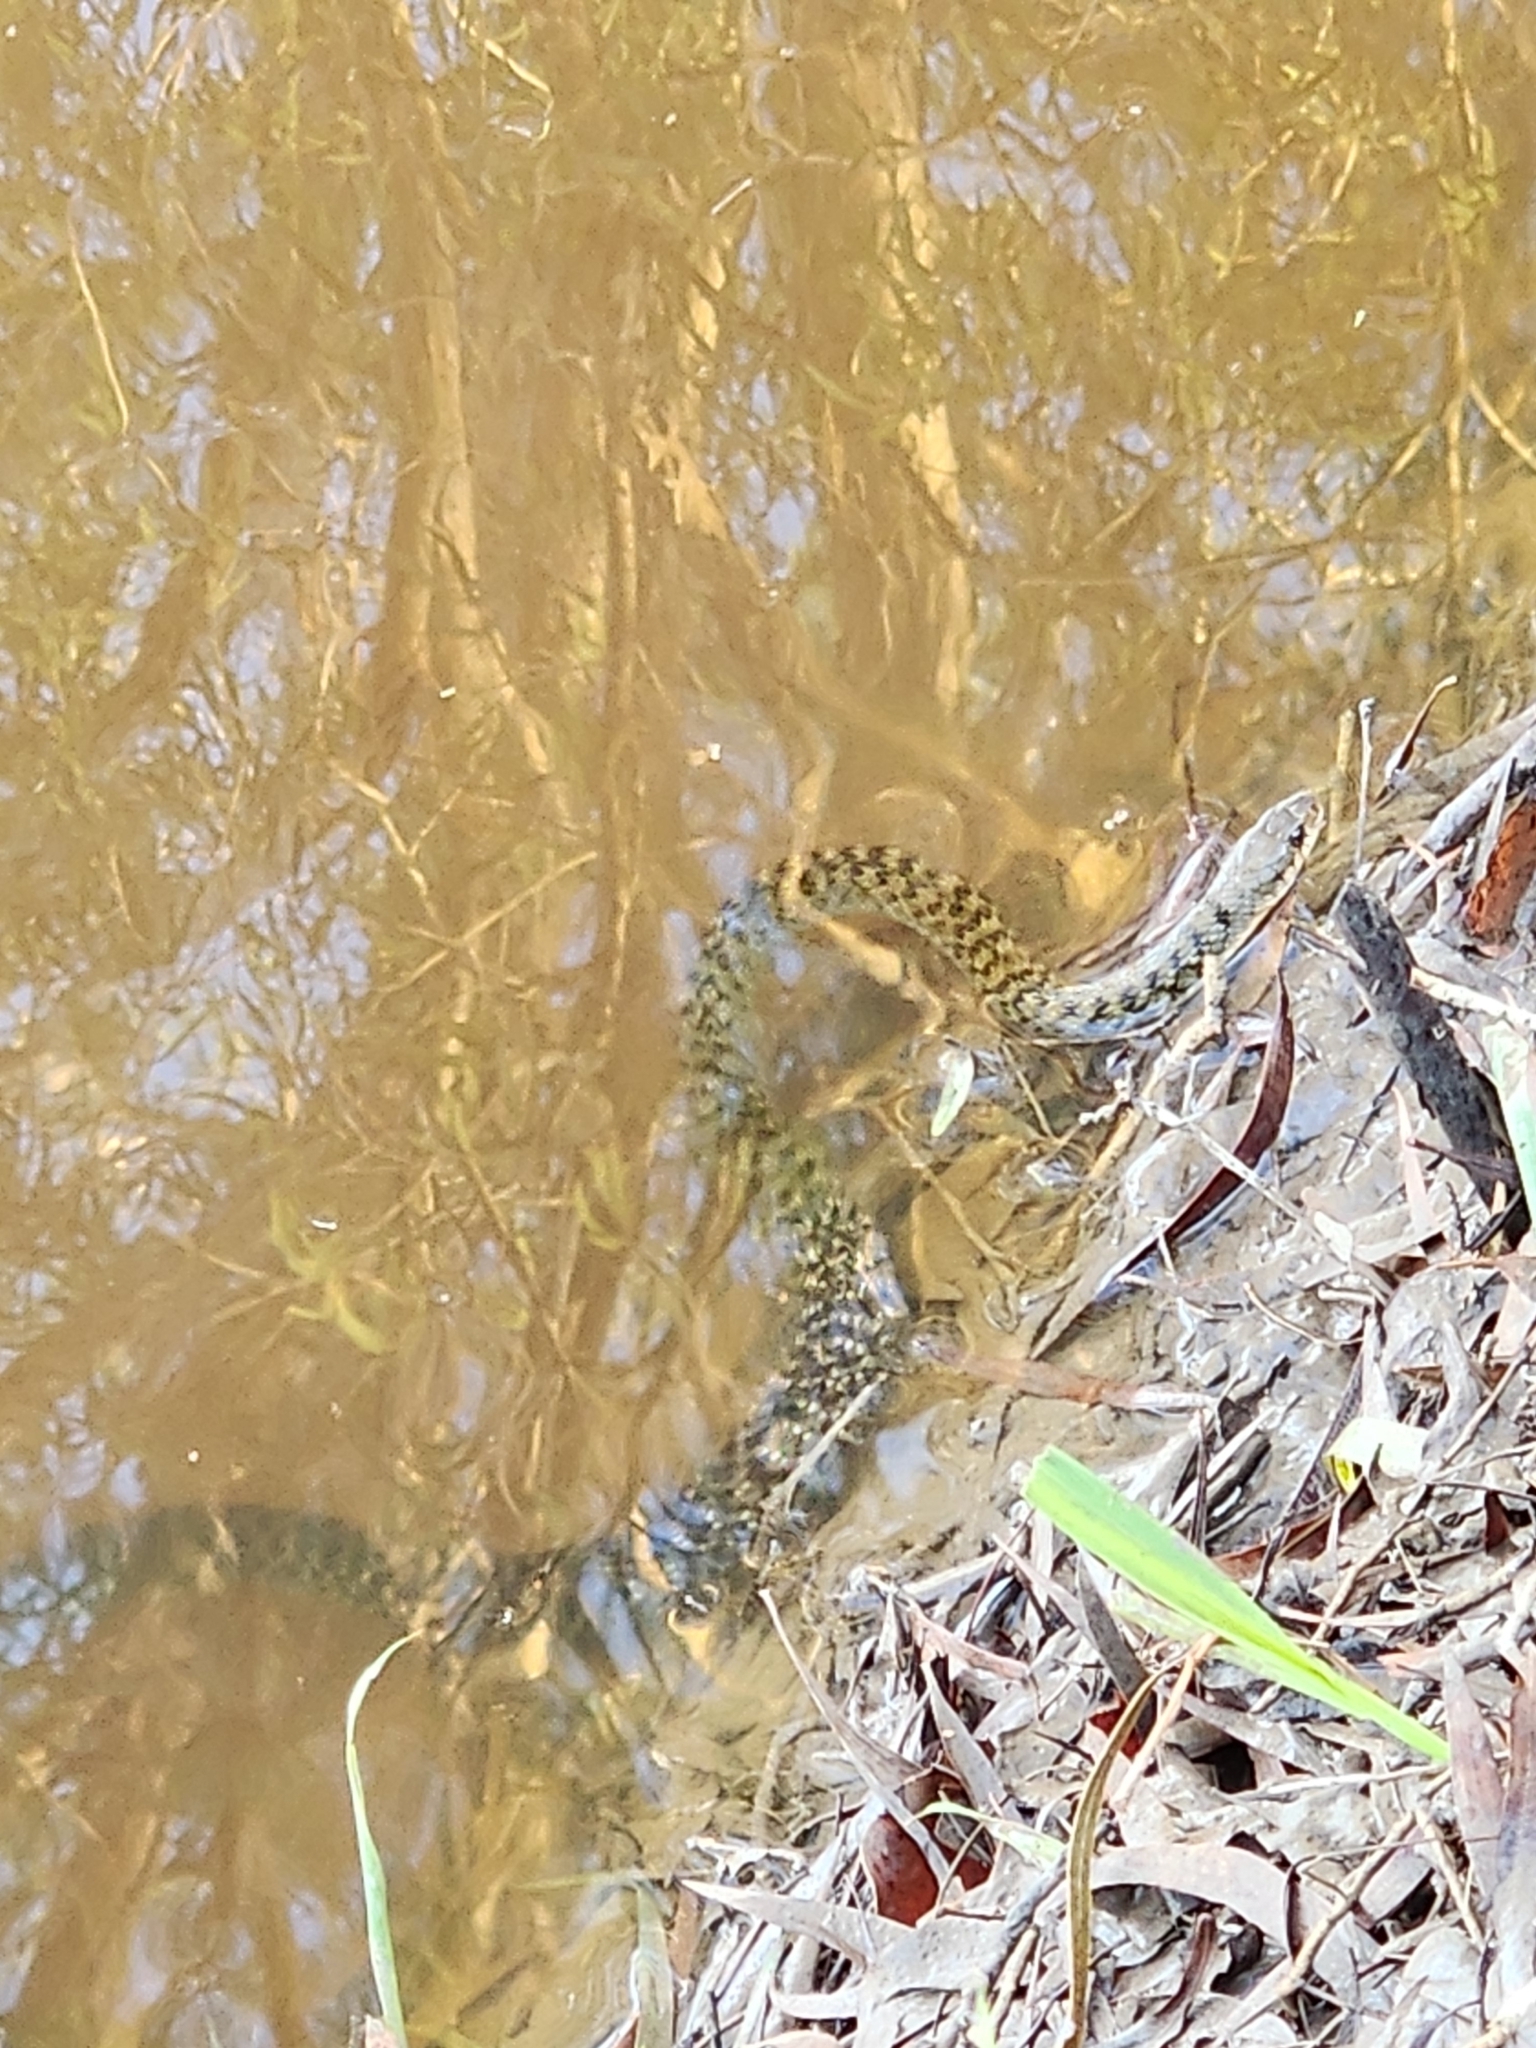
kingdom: Animalia
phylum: Chordata
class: Squamata
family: Colubridae
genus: Tropidonophis
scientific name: Tropidonophis mairii
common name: Common keelback
